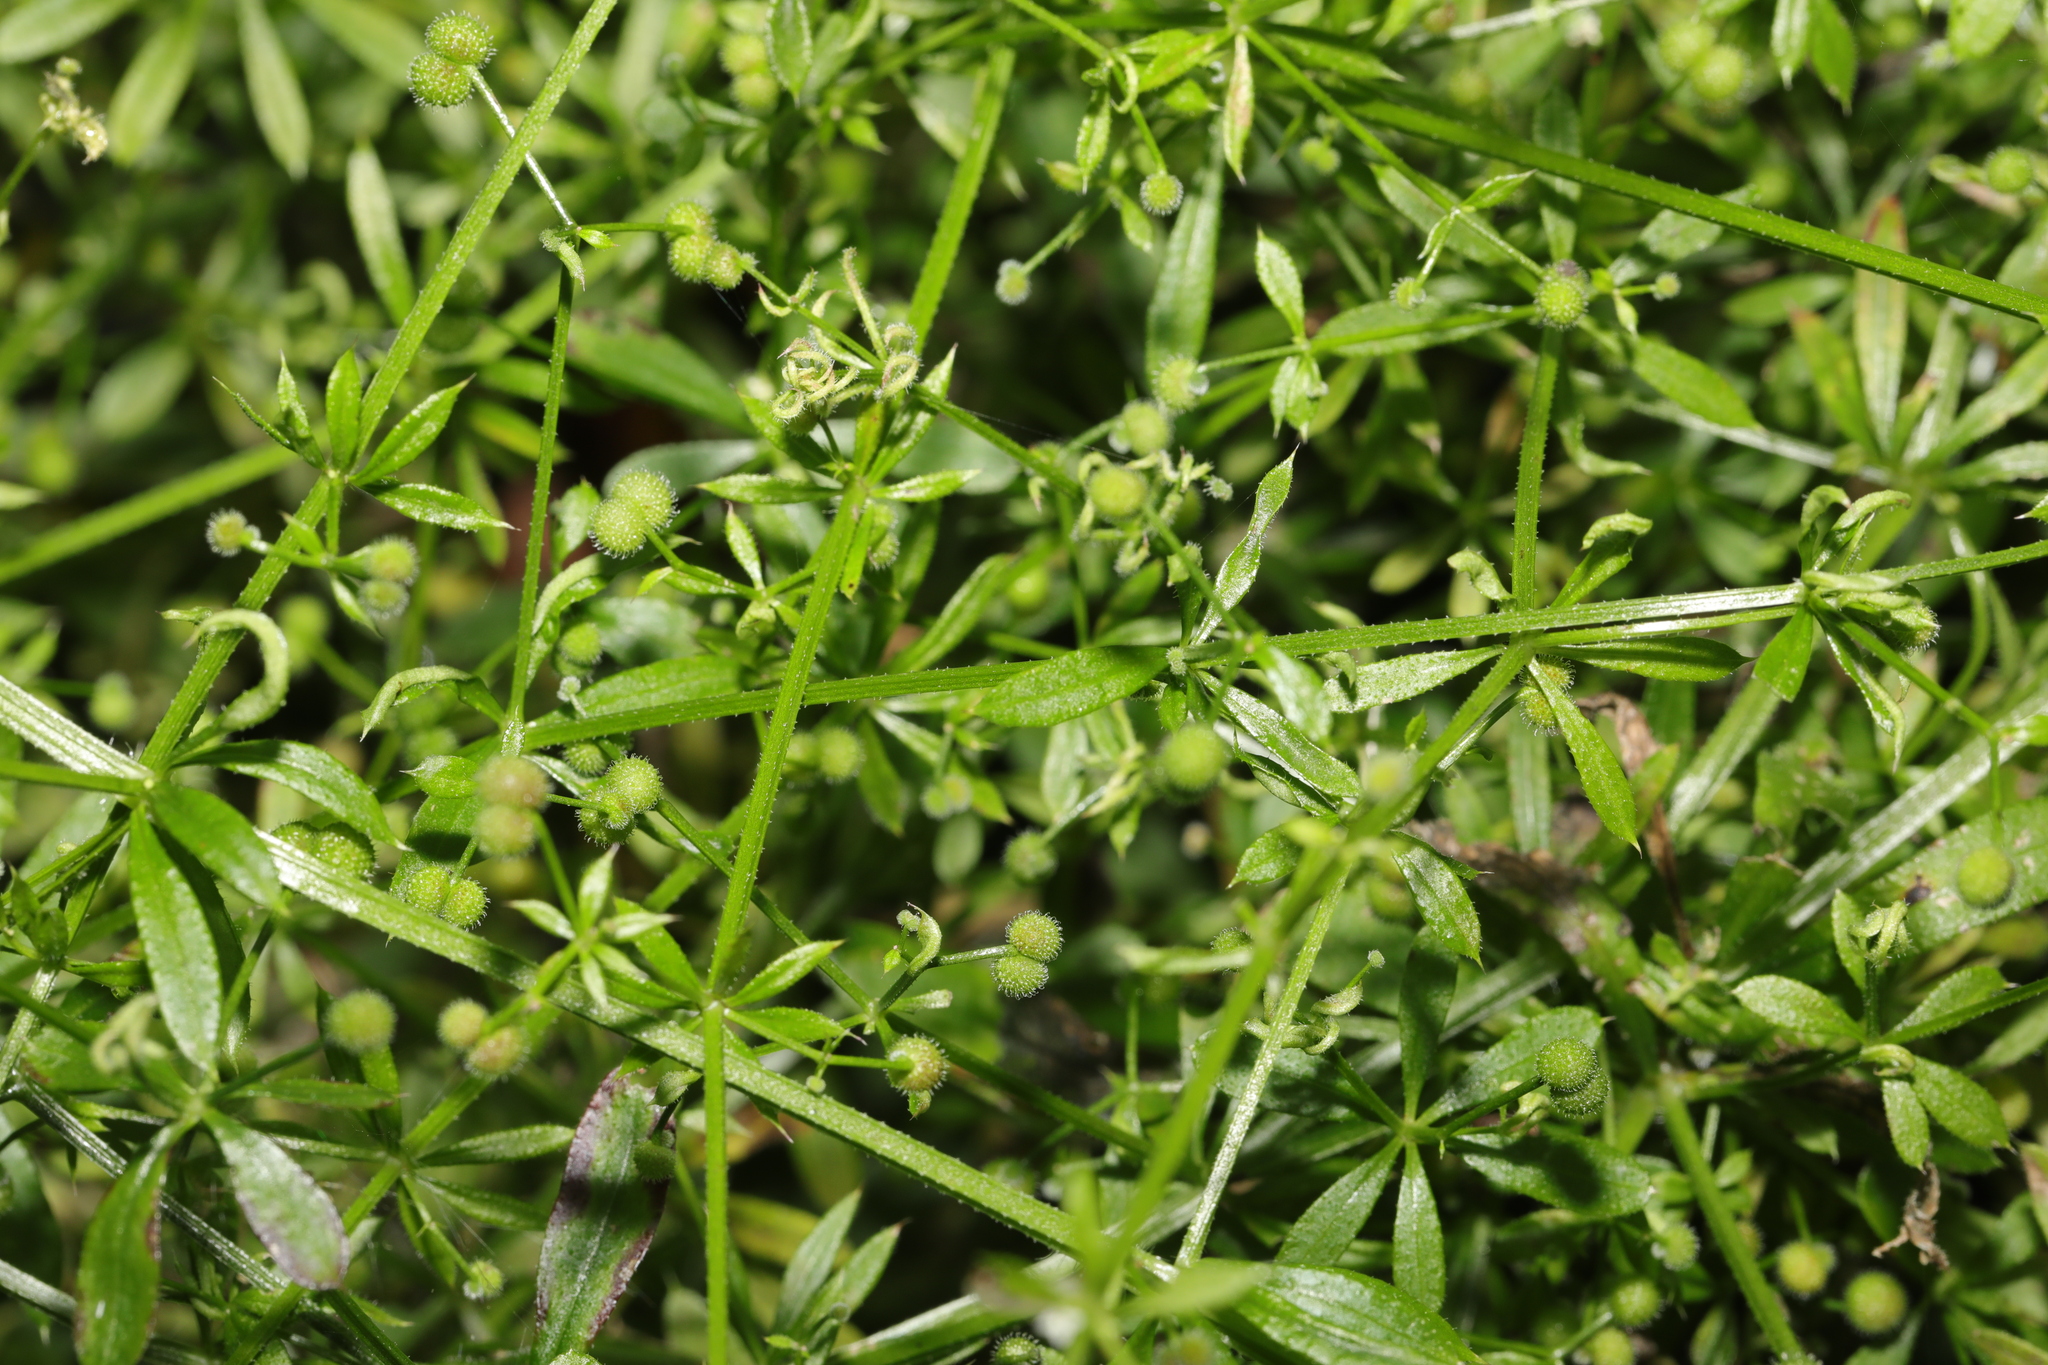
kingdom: Plantae
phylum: Tracheophyta
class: Magnoliopsida
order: Gentianales
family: Rubiaceae
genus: Galium
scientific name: Galium aparine
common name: Cleavers
